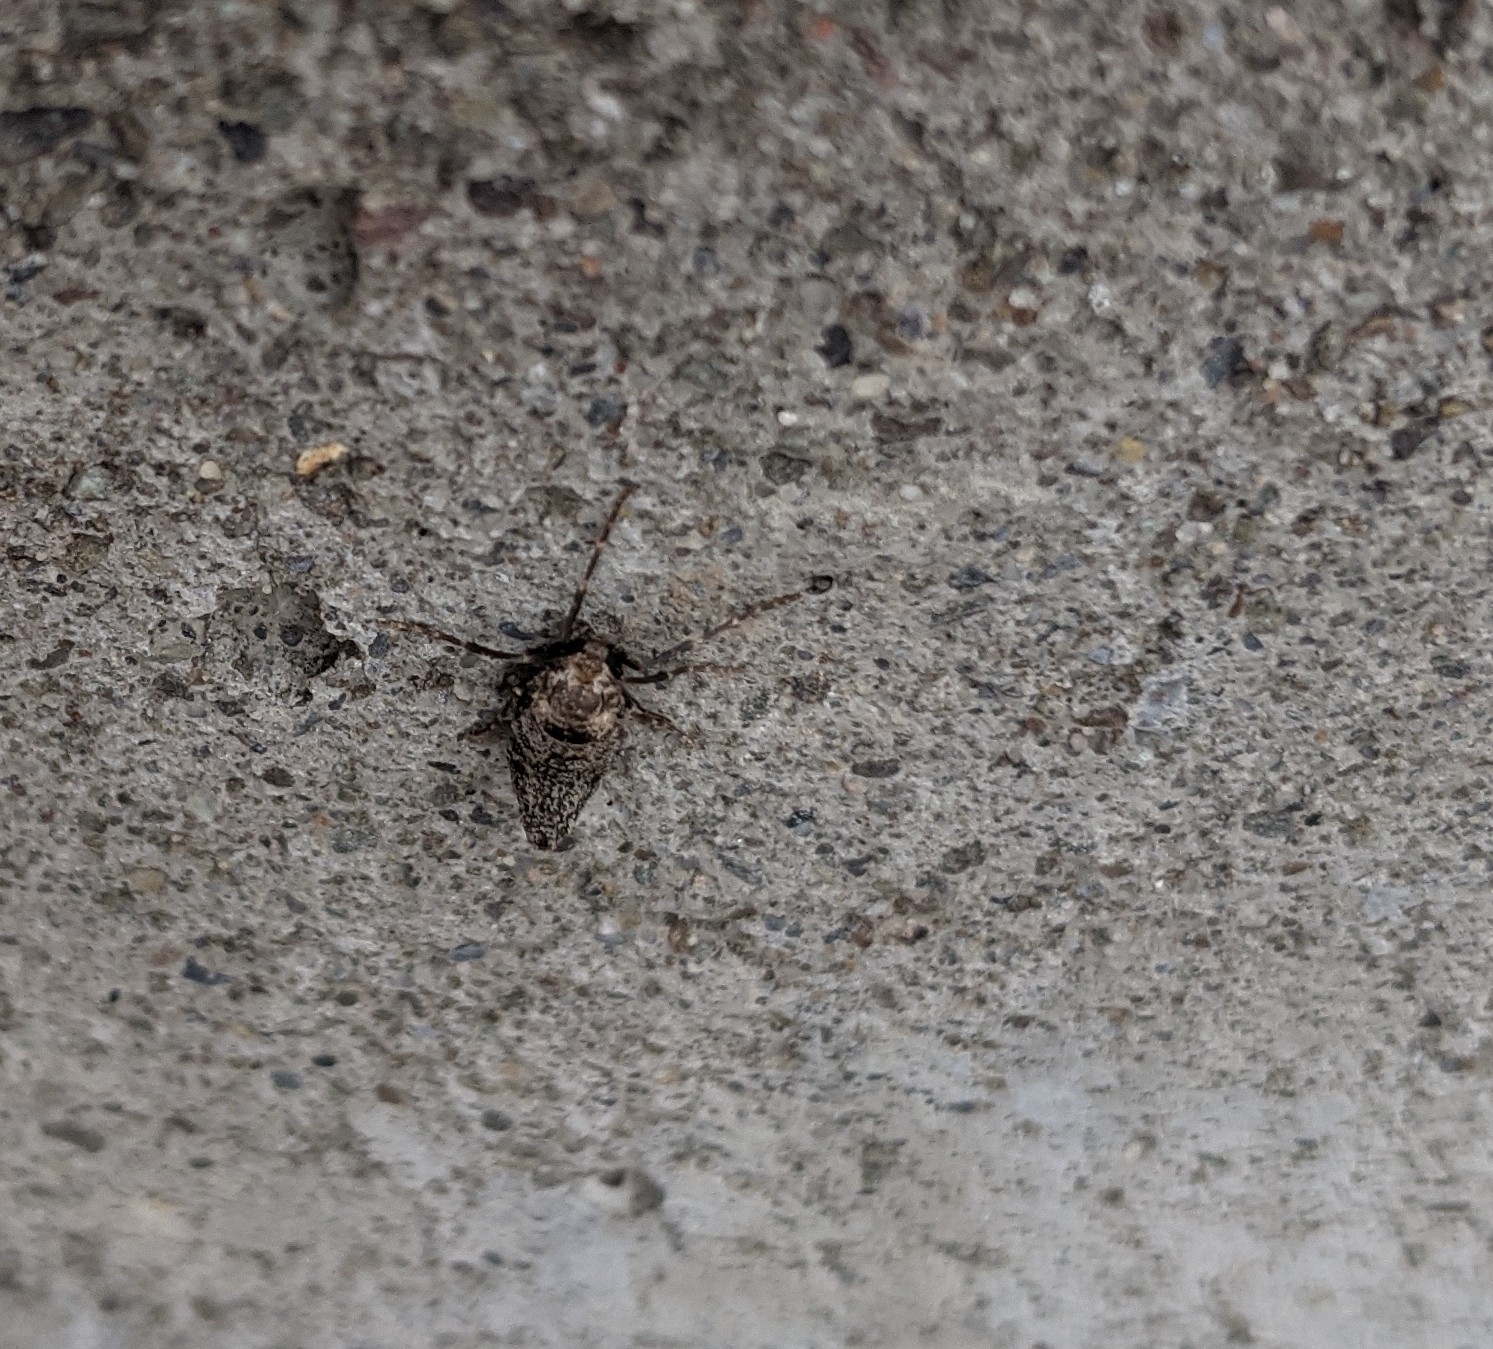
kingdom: Animalia
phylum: Arthropoda
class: Insecta
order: Lepidoptera
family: Geometridae
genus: Alsophila
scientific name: Alsophila pometaria
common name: Fall cankerworm
